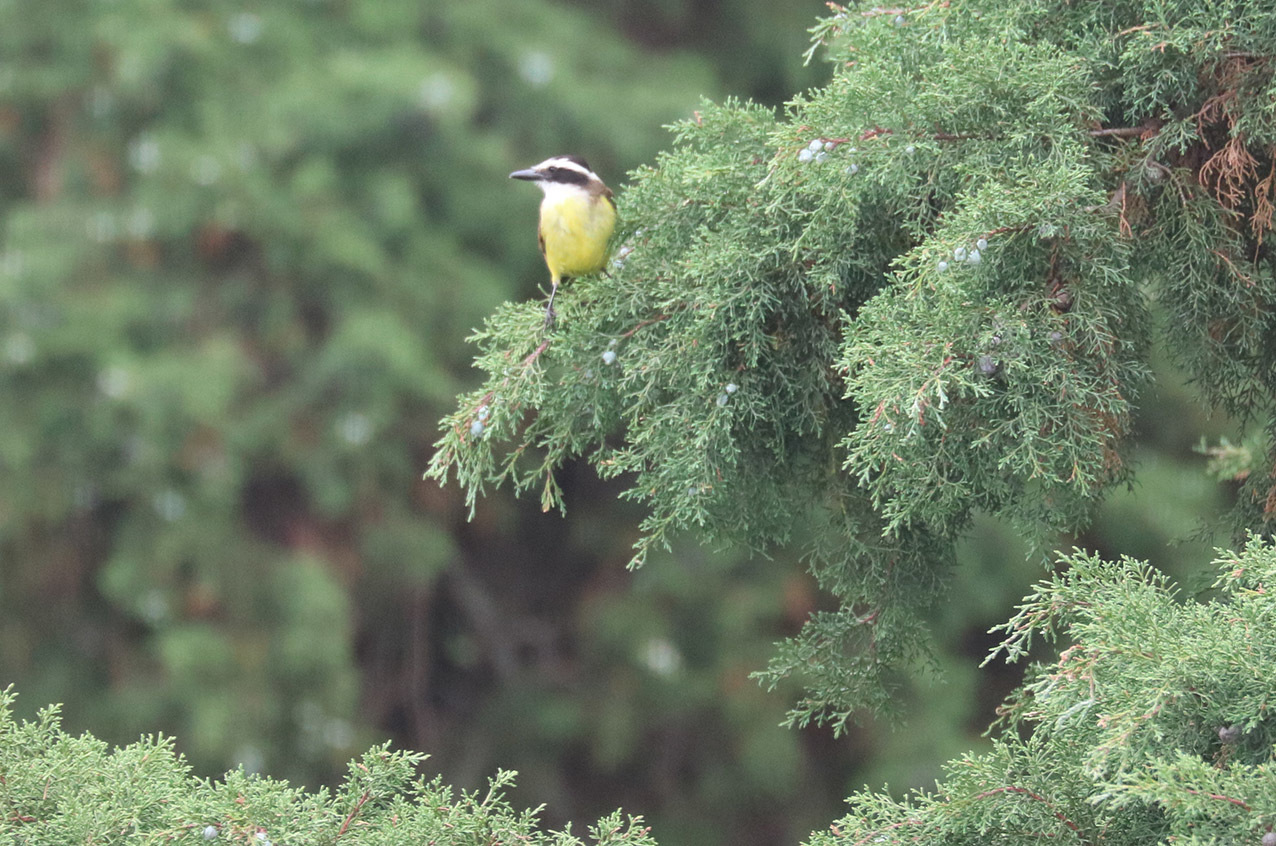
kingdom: Animalia
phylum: Chordata
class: Aves
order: Passeriformes
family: Tyrannidae
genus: Pitangus
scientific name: Pitangus sulphuratus
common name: Great kiskadee
